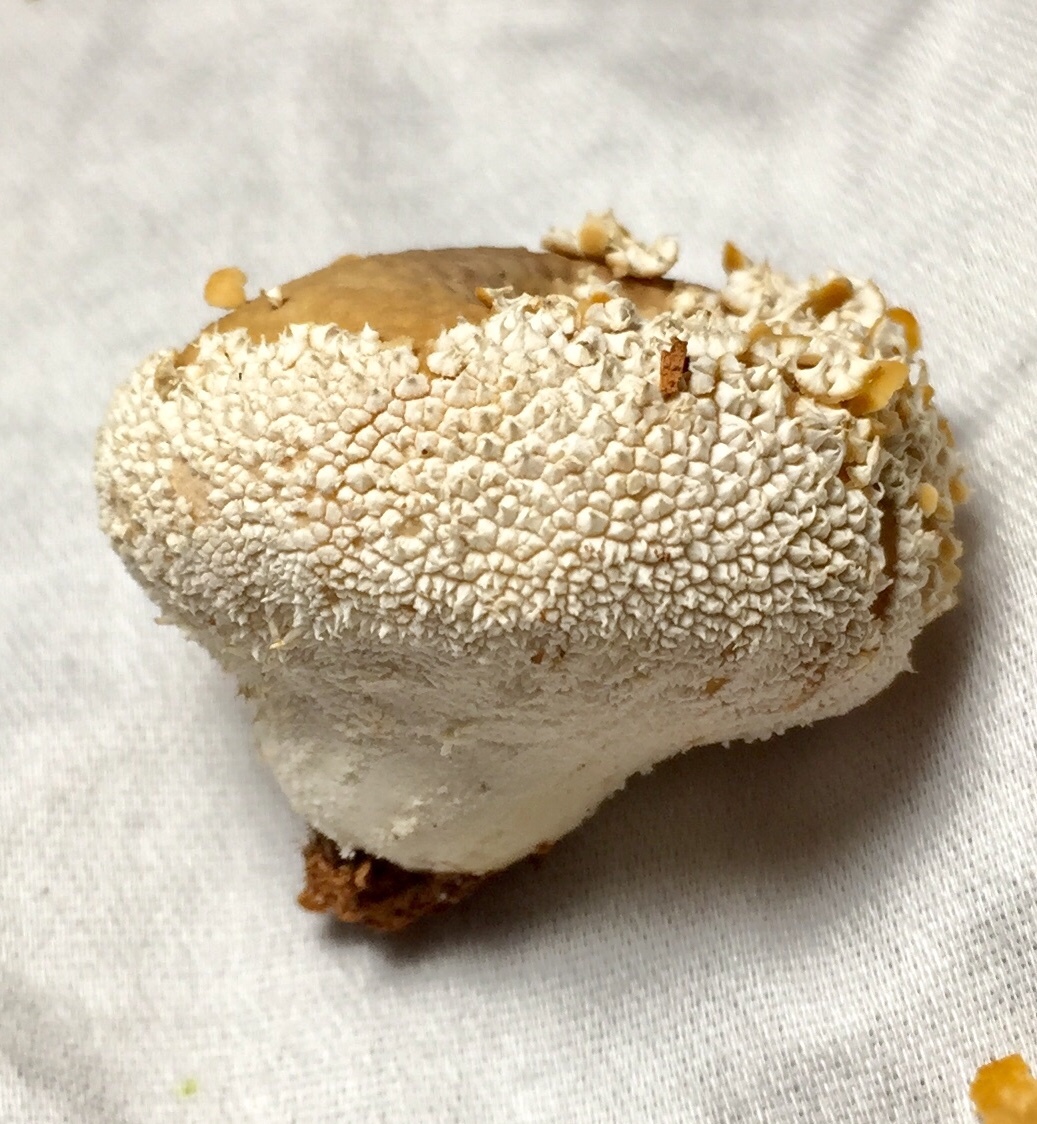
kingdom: Fungi
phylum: Basidiomycota
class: Agaricomycetes
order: Agaricales
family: Agaricaceae
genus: Lycoperdon
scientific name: Lycoperdon marginatum
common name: Peeling puffball
